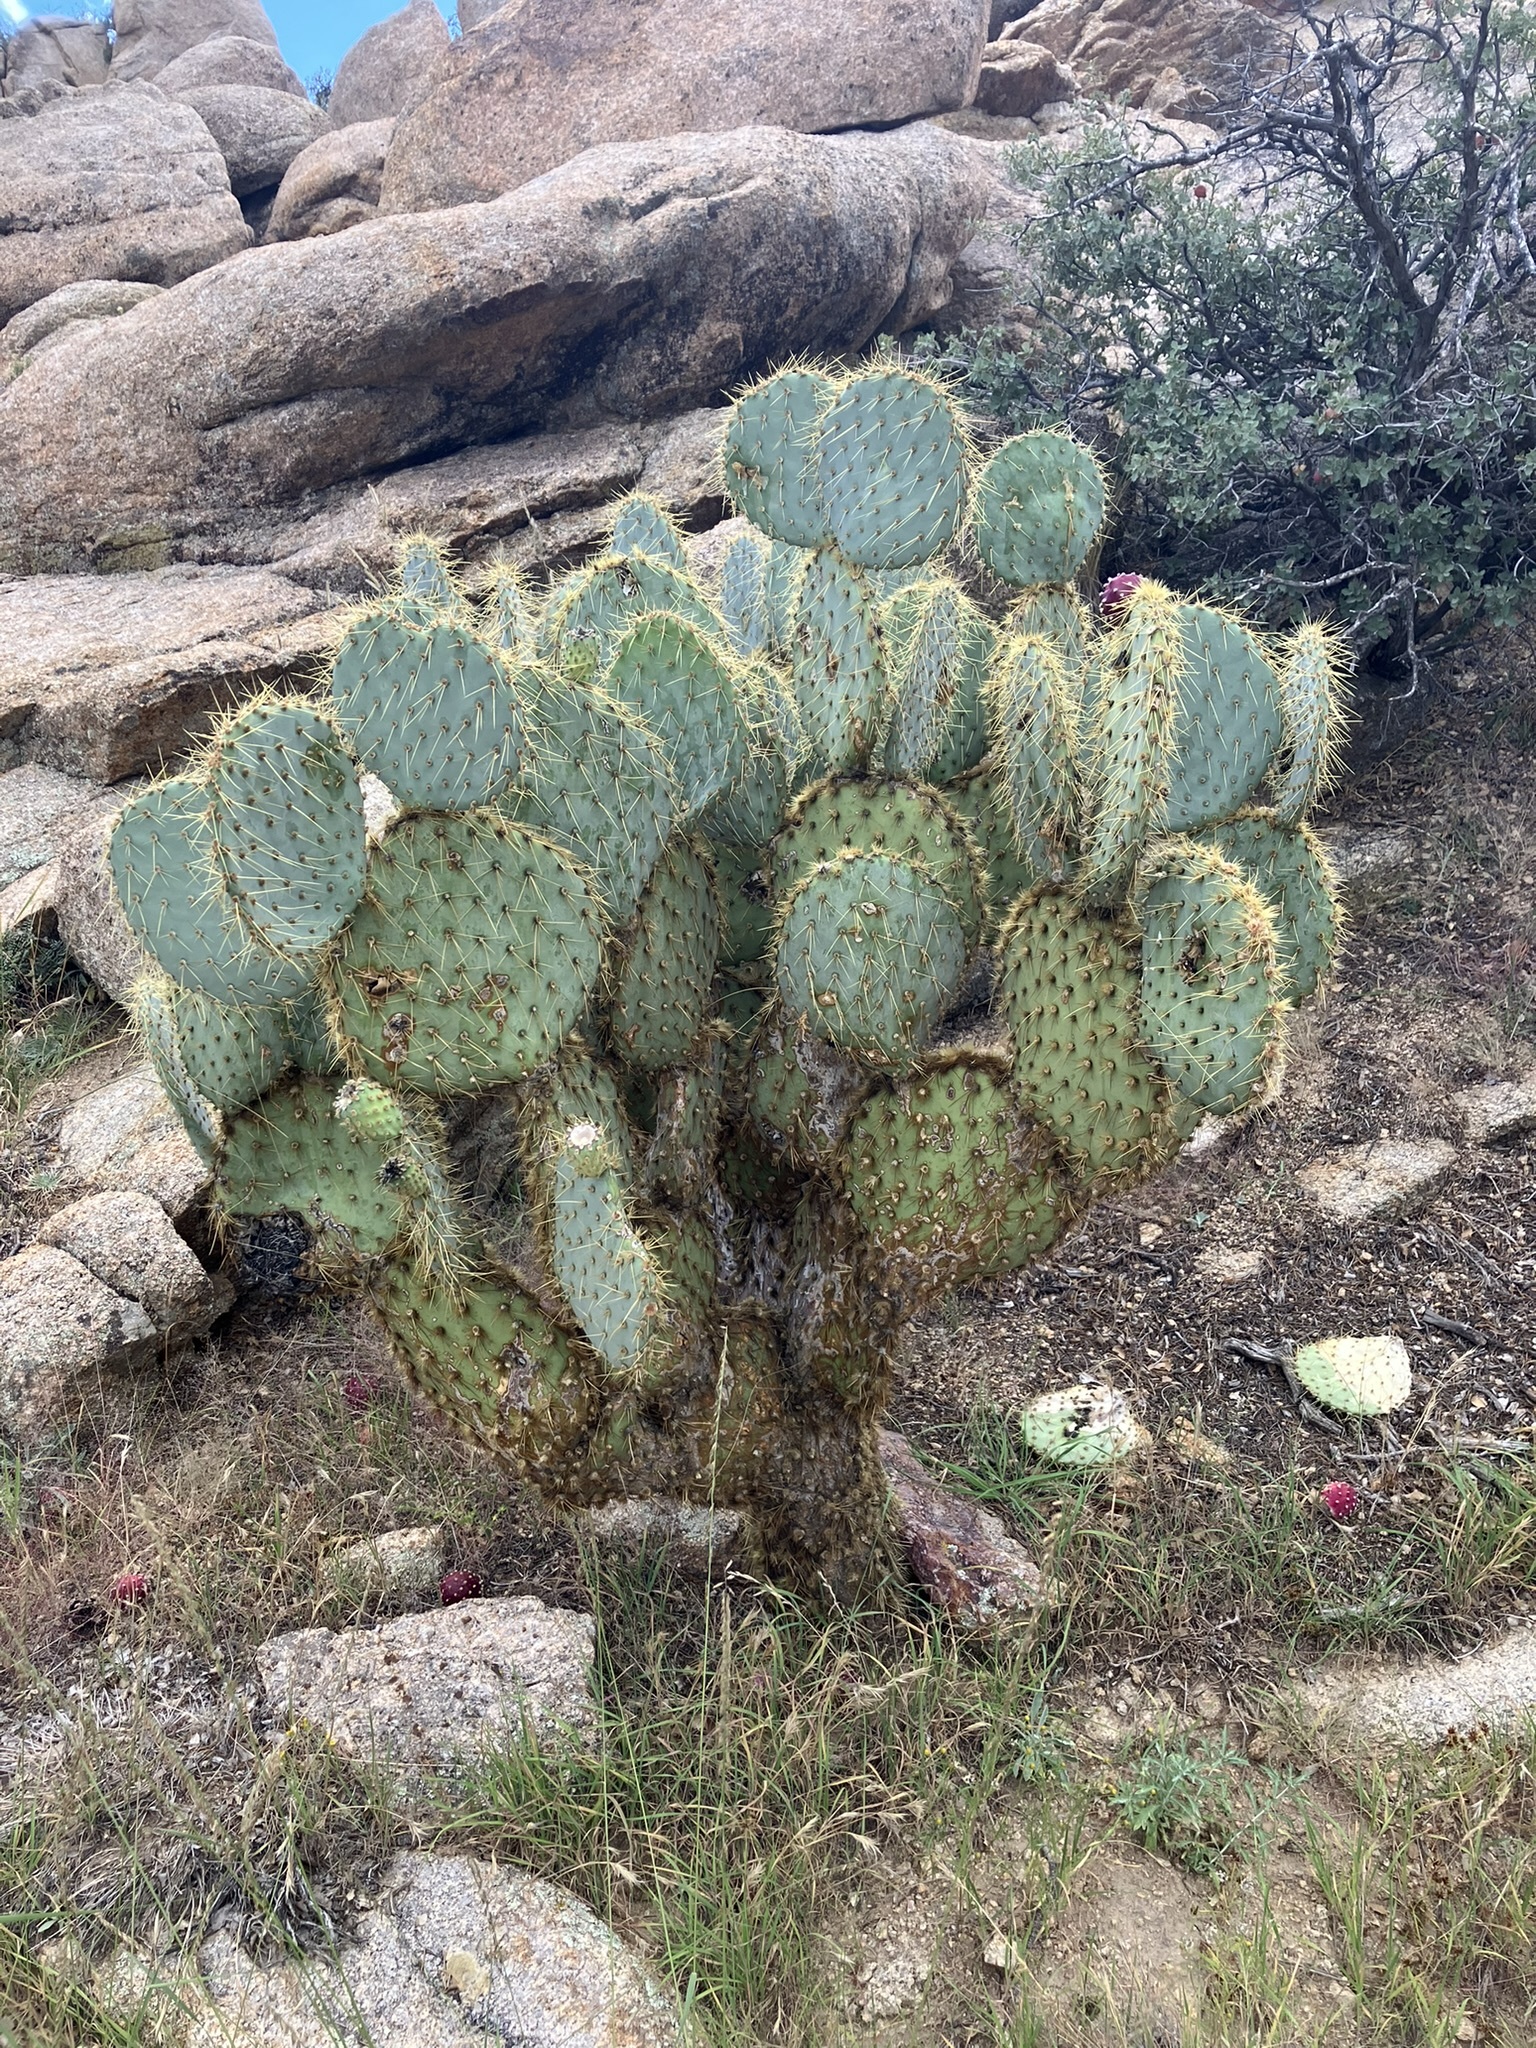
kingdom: Plantae
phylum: Tracheophyta
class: Magnoliopsida
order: Caryophyllales
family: Cactaceae
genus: Opuntia
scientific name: Opuntia chlorotica
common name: Dollar-joint prickly-pear
